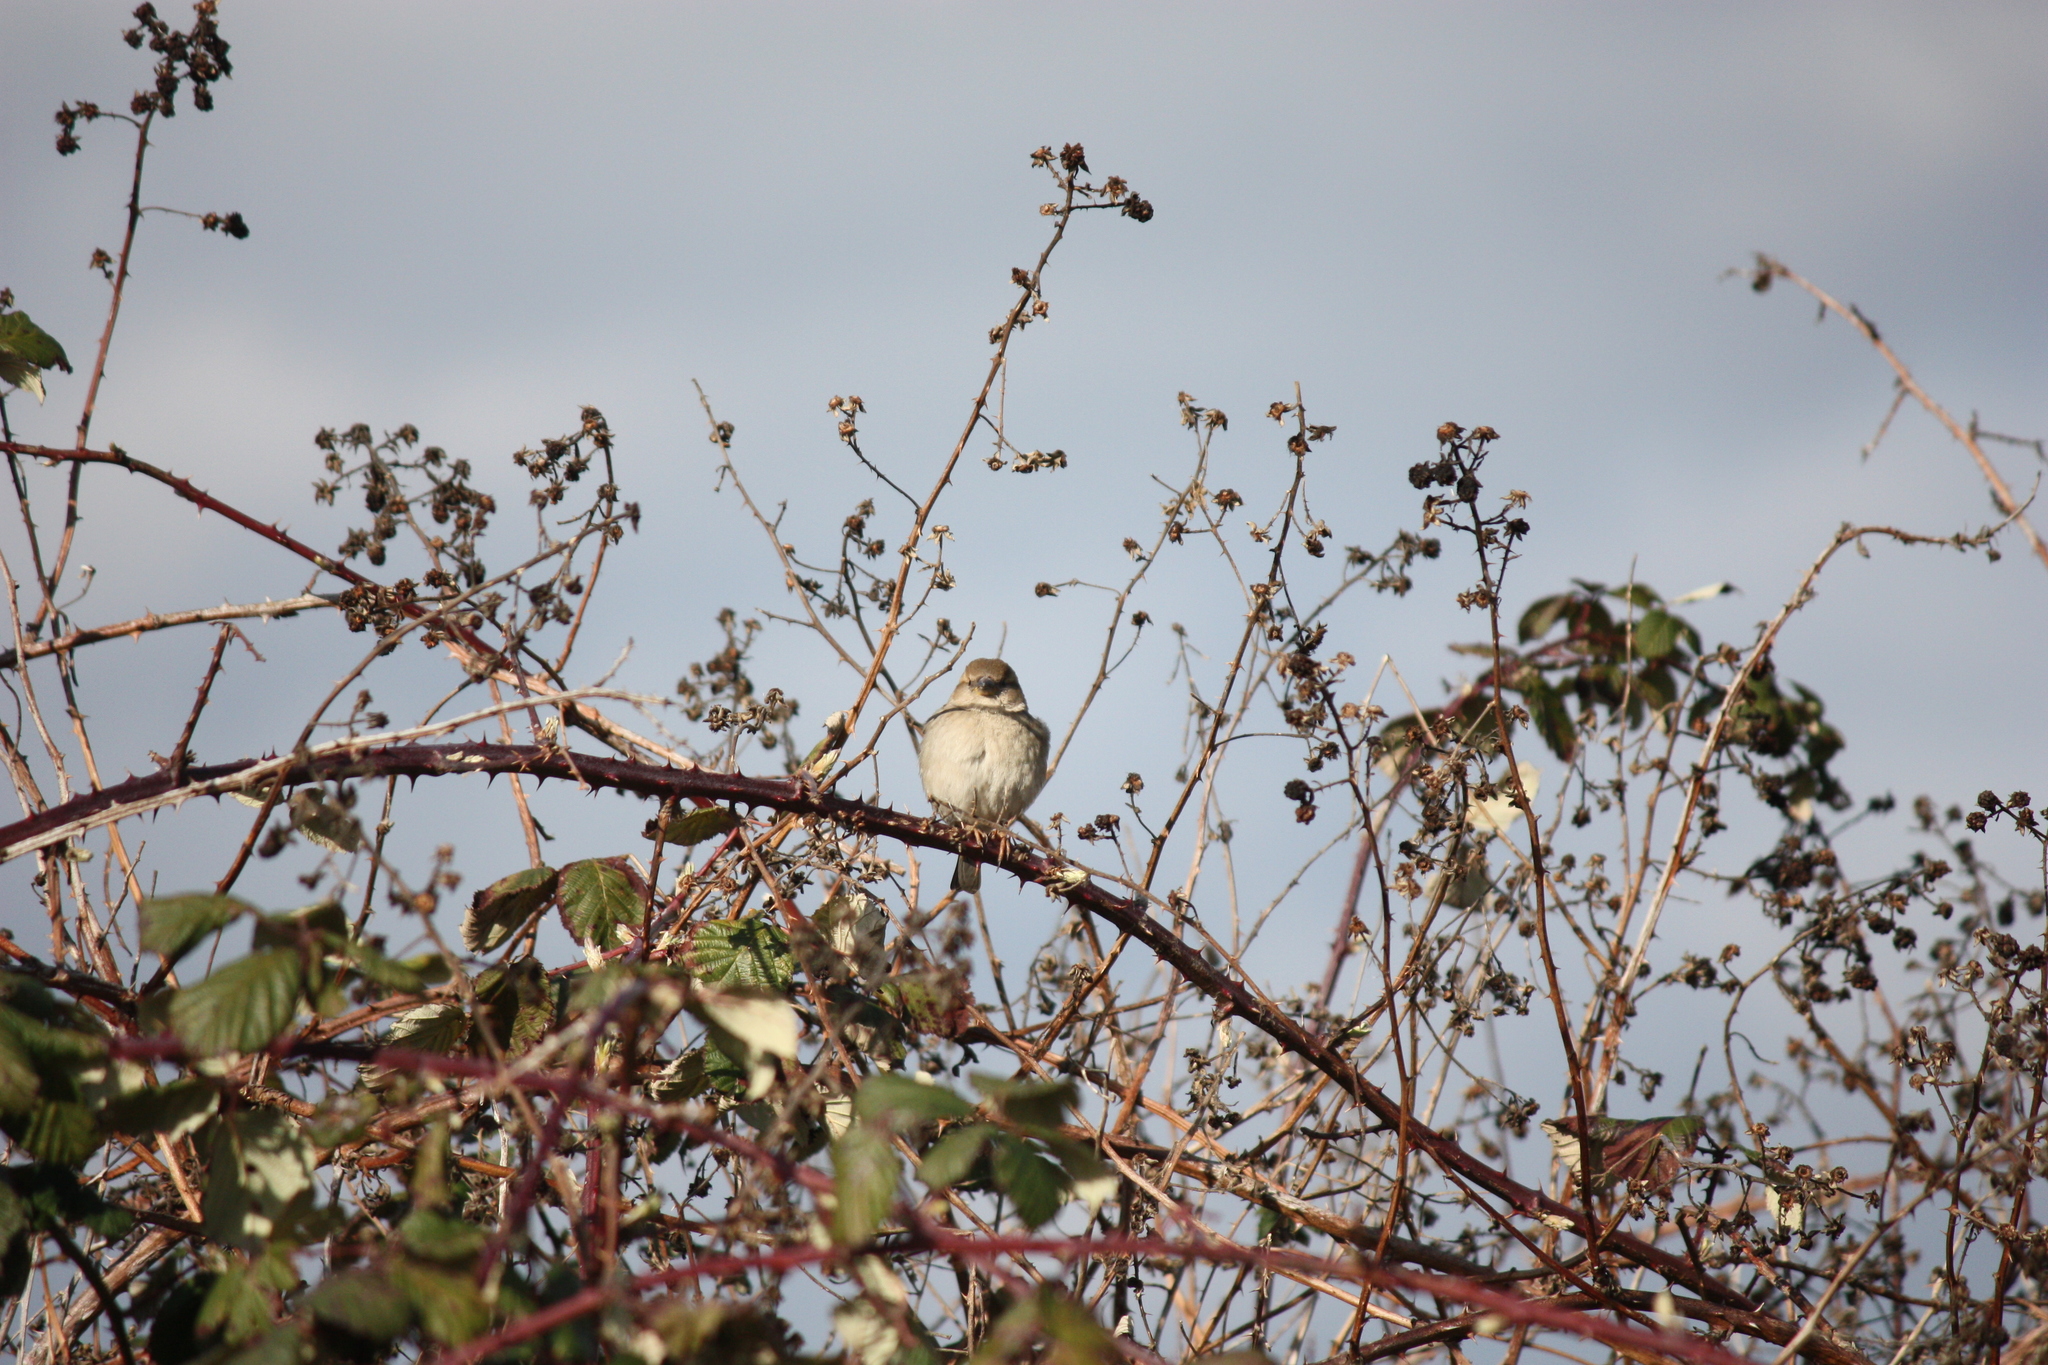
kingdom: Animalia
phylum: Chordata
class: Aves
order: Passeriformes
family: Passeridae
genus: Passer
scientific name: Passer domesticus
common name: House sparrow
